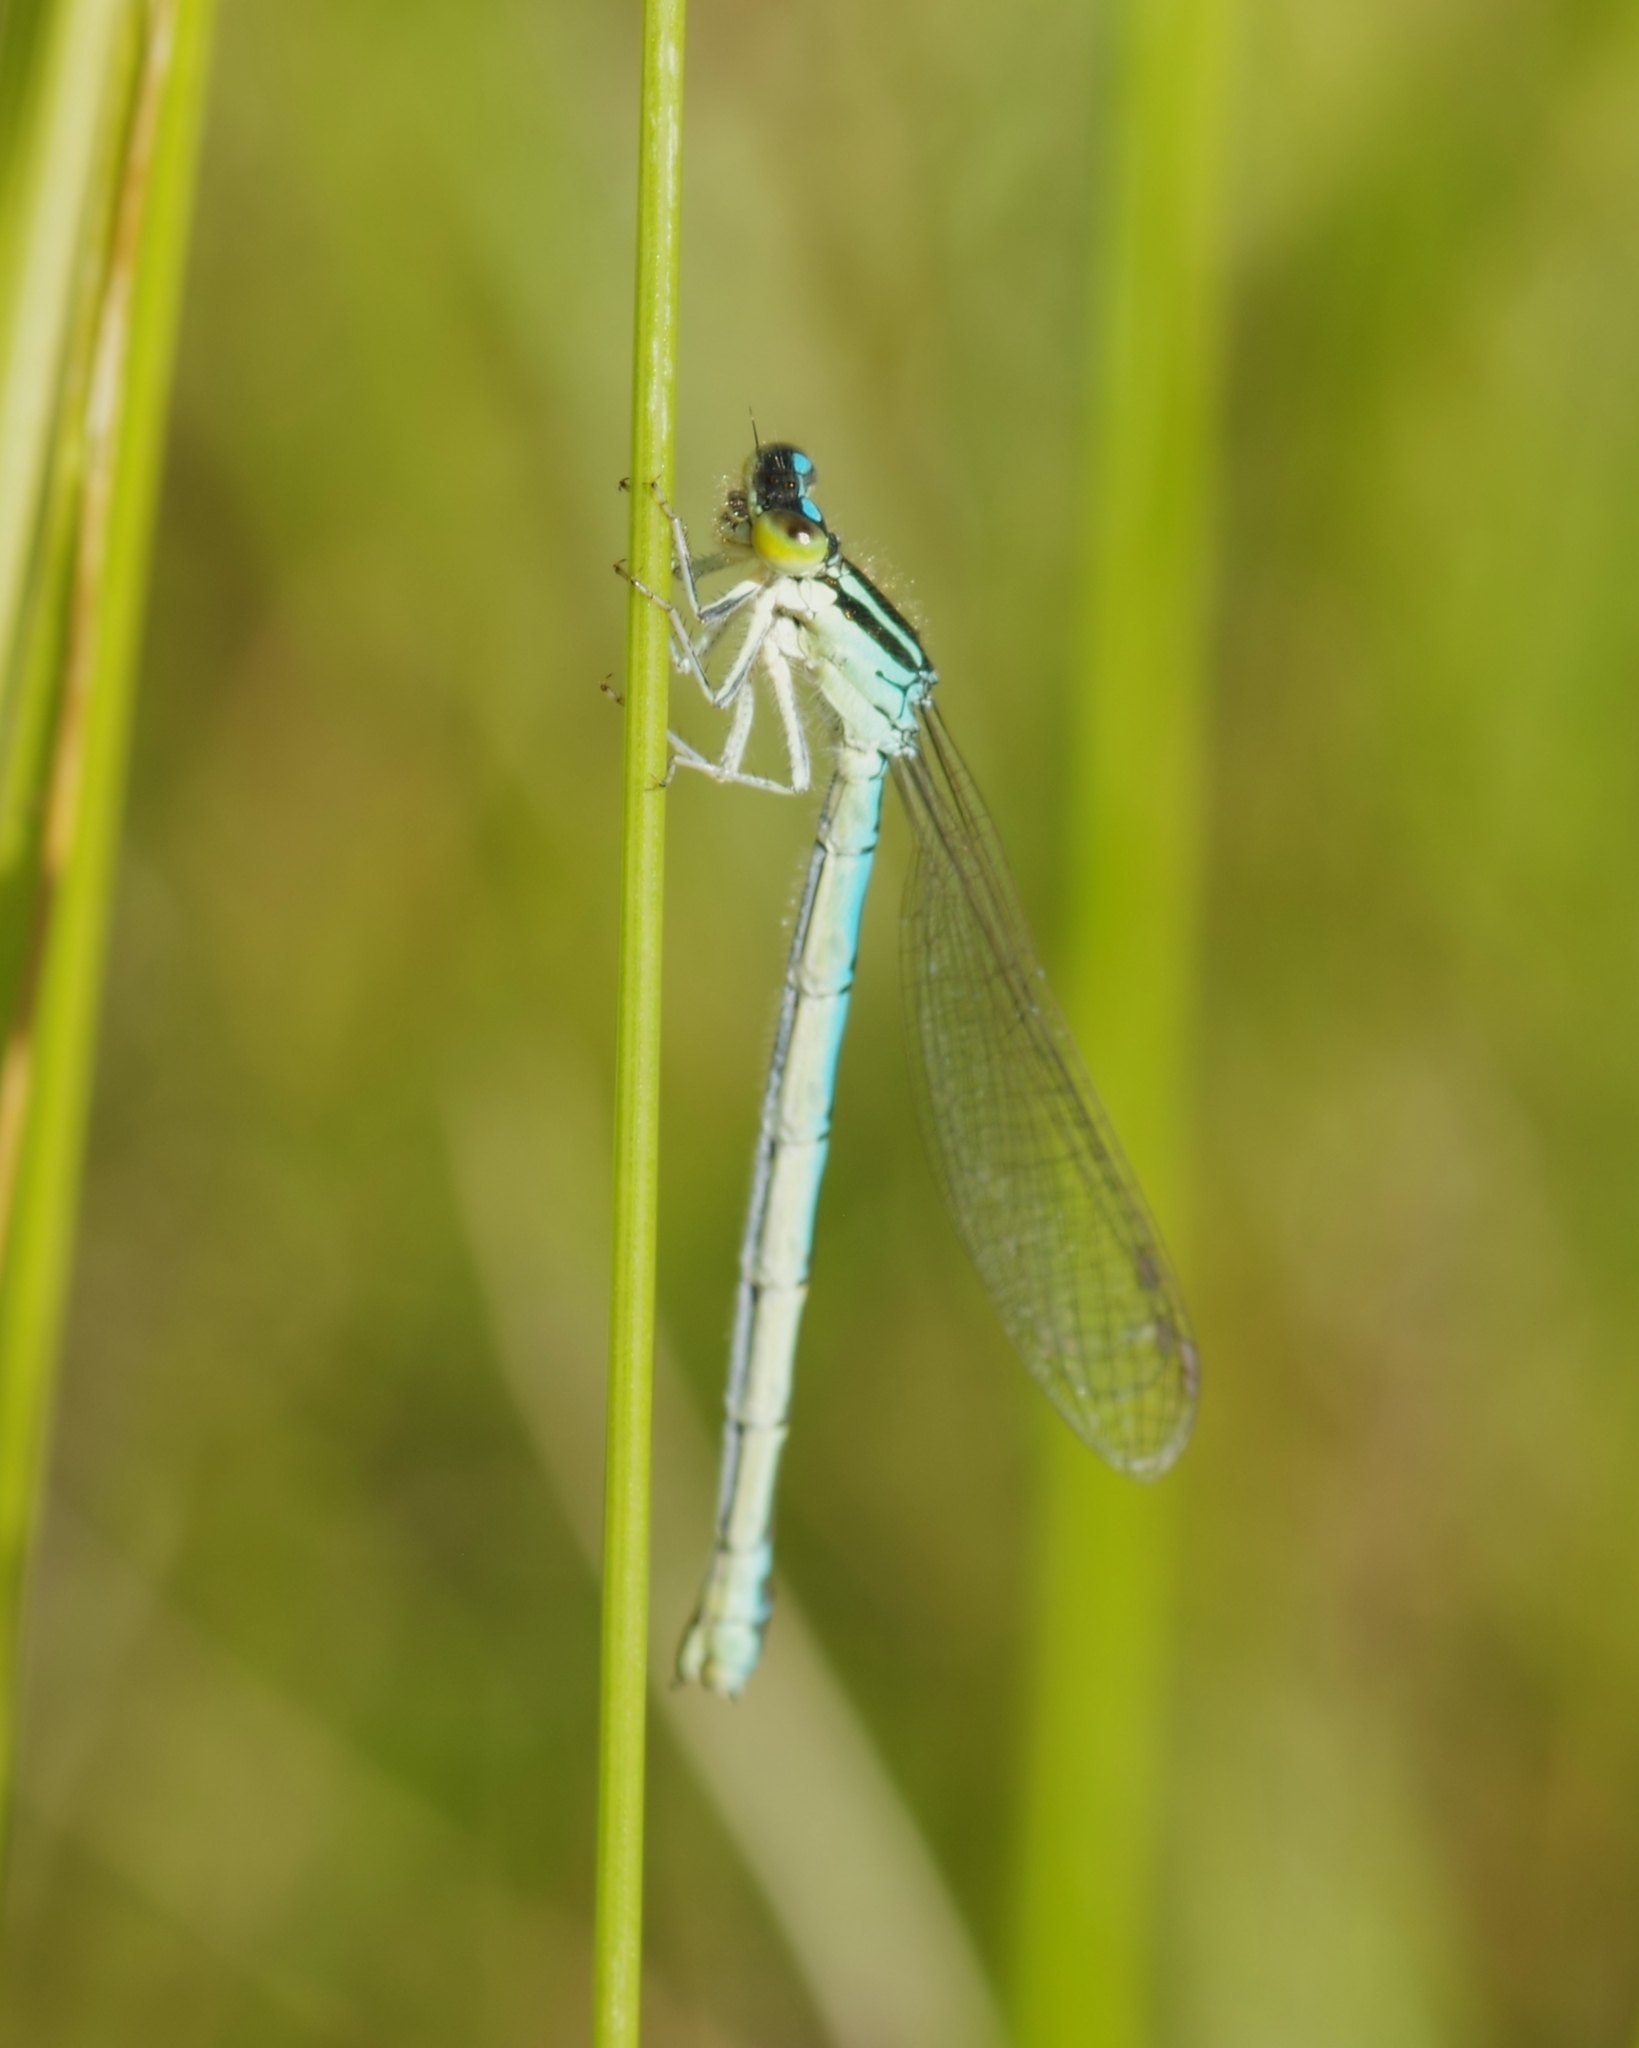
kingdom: Animalia
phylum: Arthropoda
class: Insecta
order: Odonata
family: Coenagrionidae
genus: Coenagrion
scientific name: Coenagrion scitulum
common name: Dainty bluet
